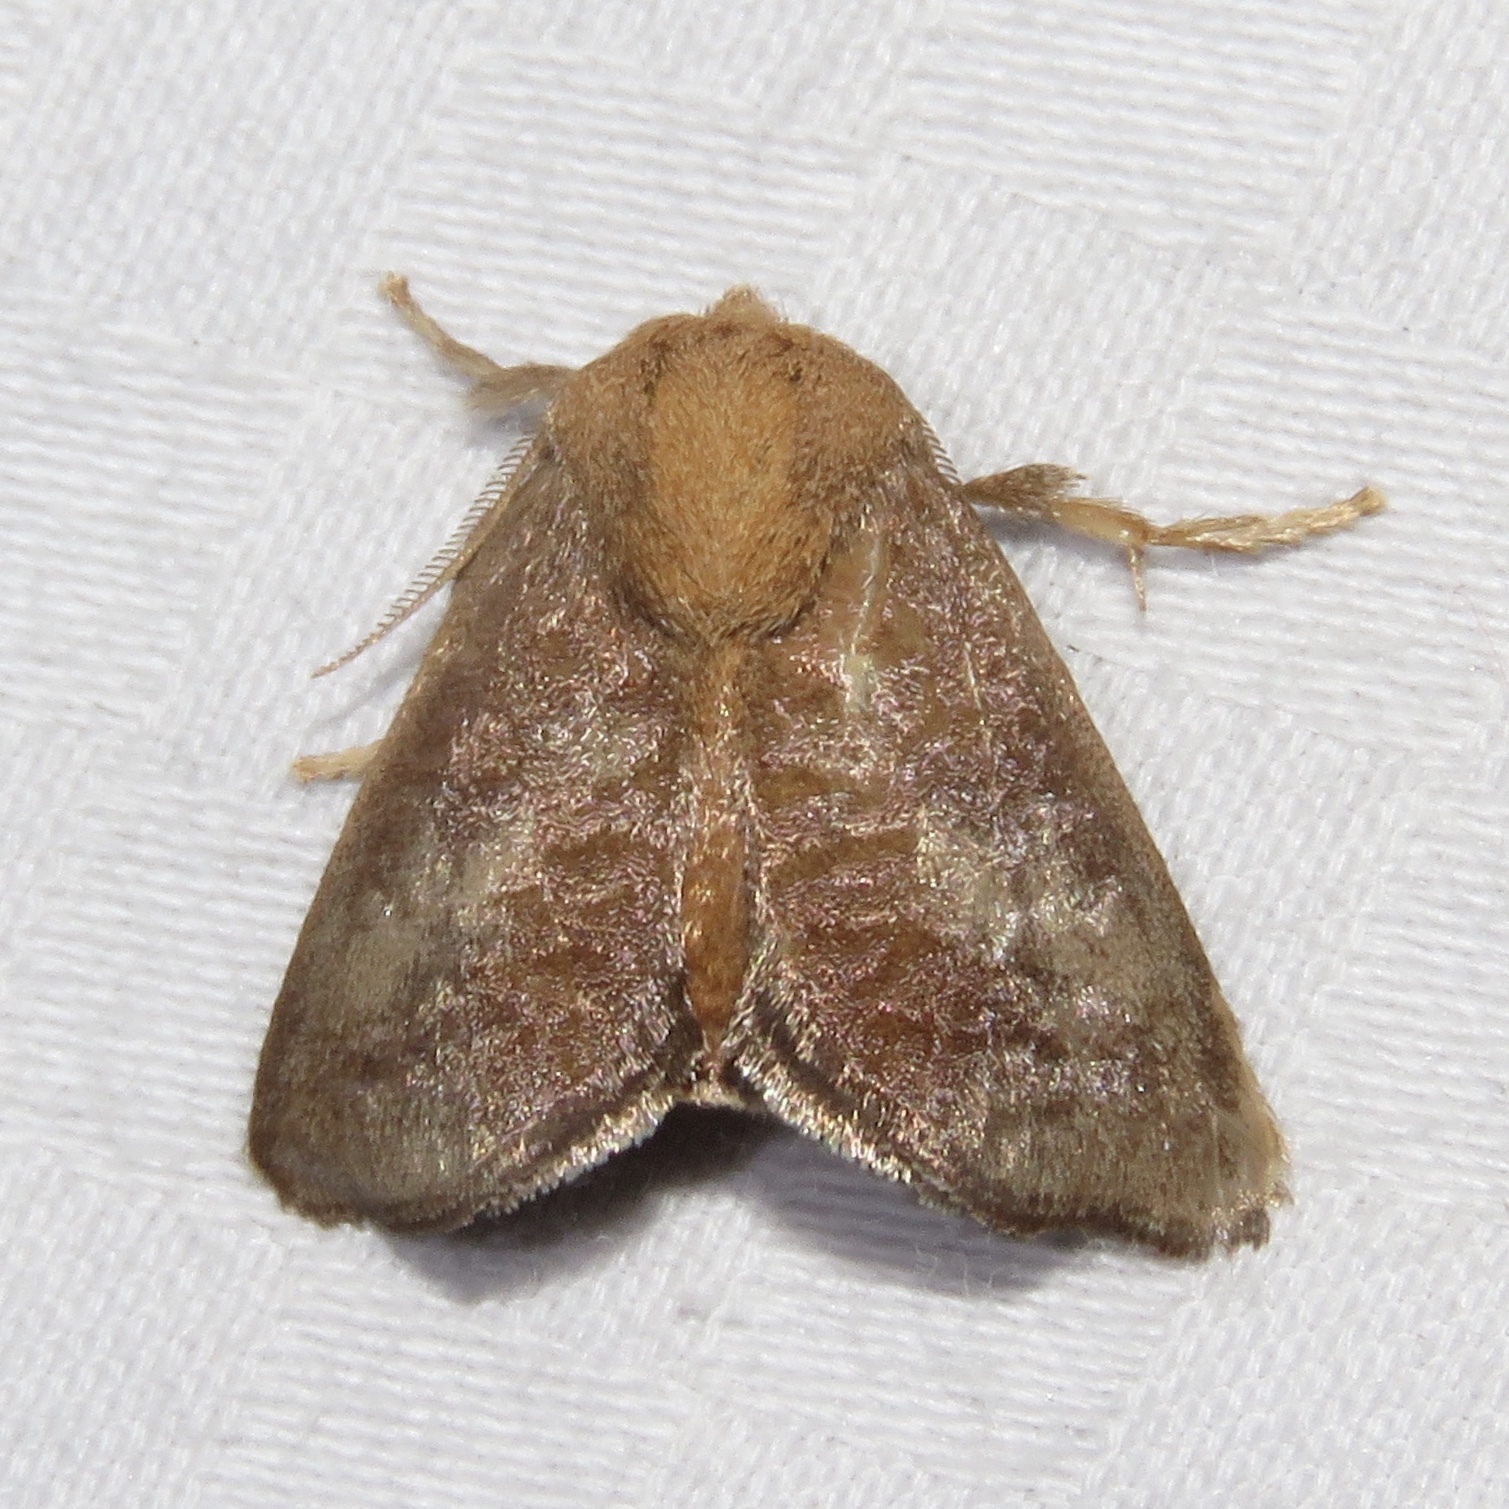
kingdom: Animalia
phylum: Arthropoda
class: Insecta
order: Lepidoptera
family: Limacodidae
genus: Isa
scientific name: Isa textula
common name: Crowned slug moth
